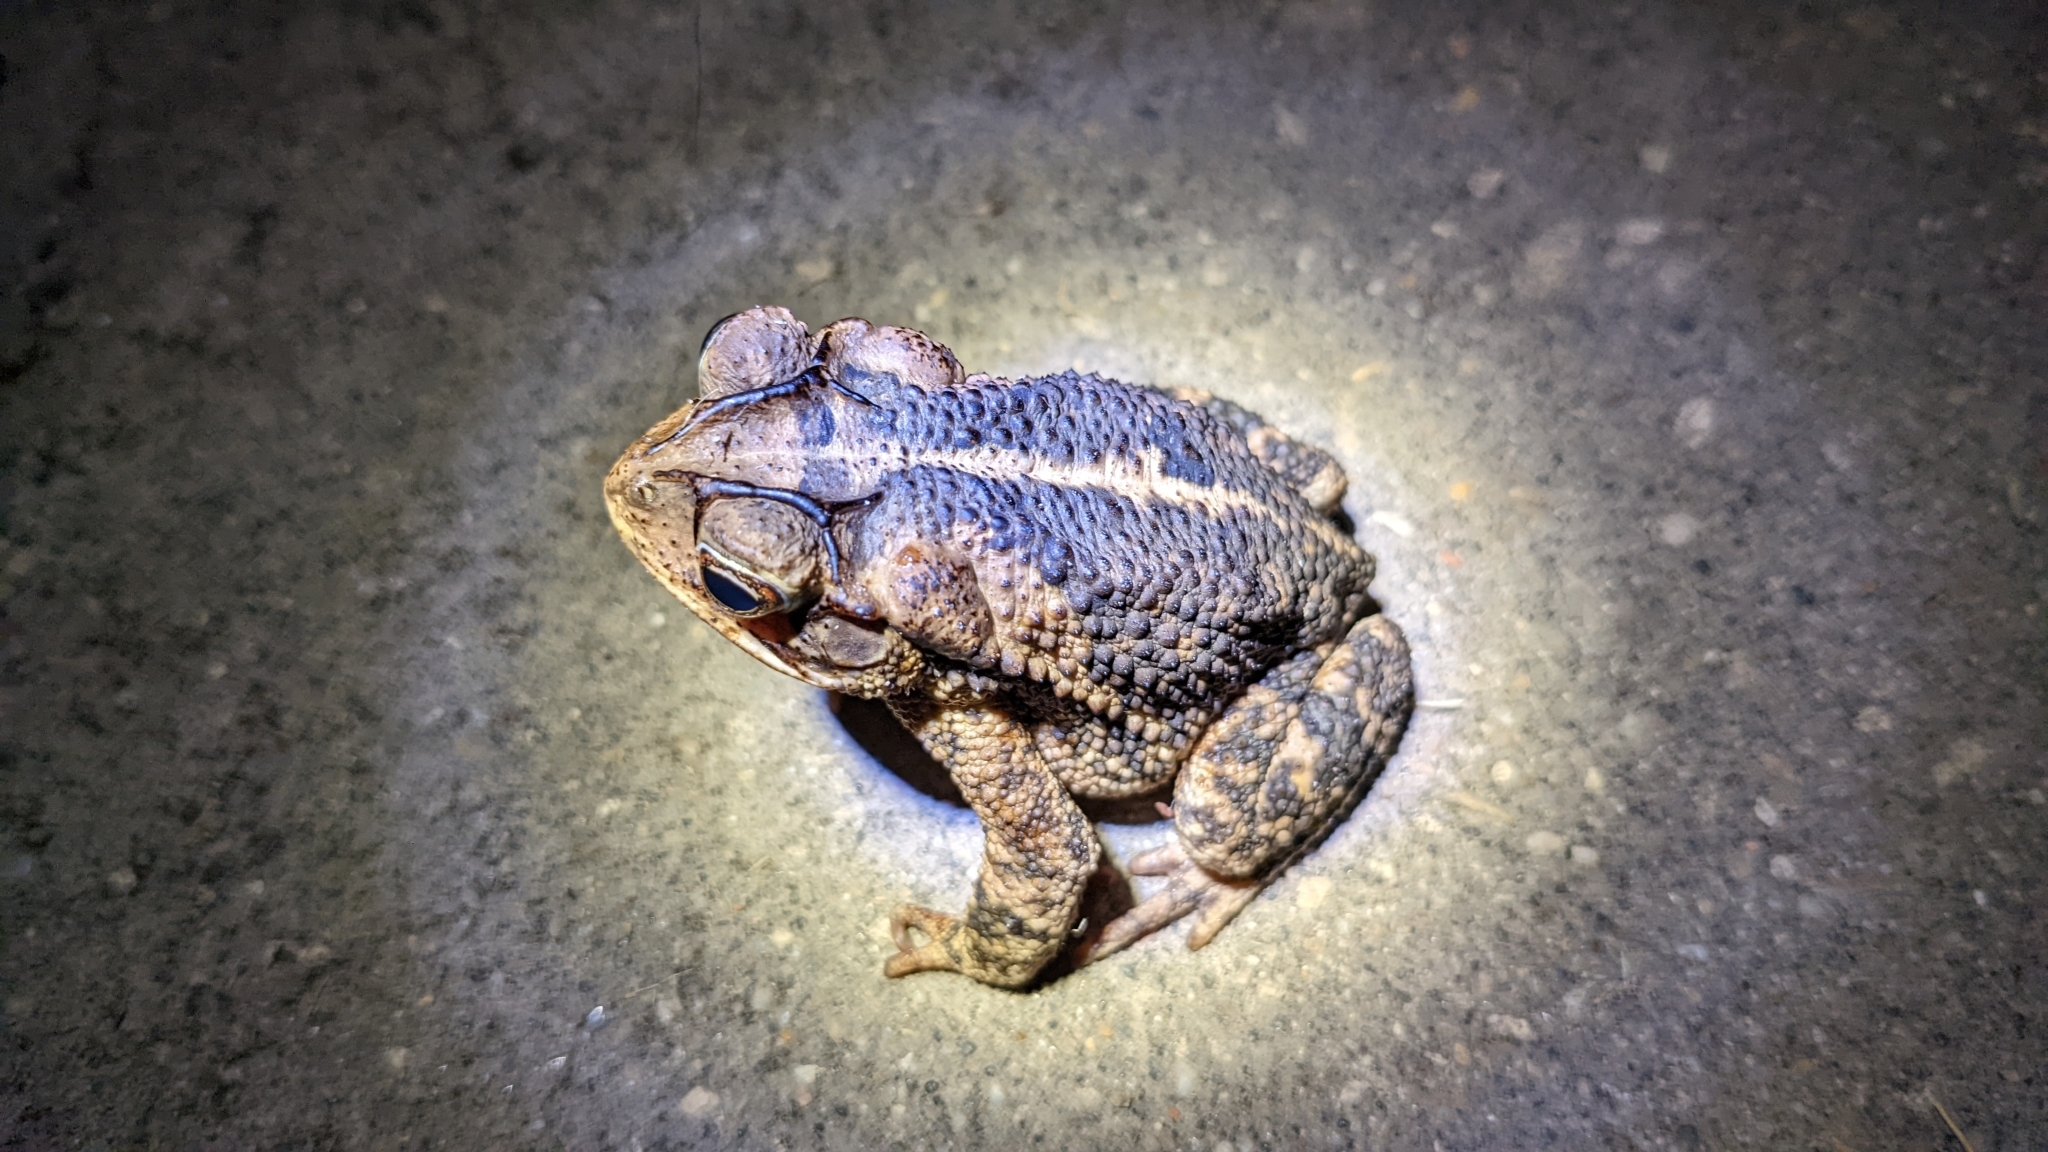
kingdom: Animalia
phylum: Chordata
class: Amphibia
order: Anura
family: Bufonidae
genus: Incilius
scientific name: Incilius nebulifer
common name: Gulf coast toad
